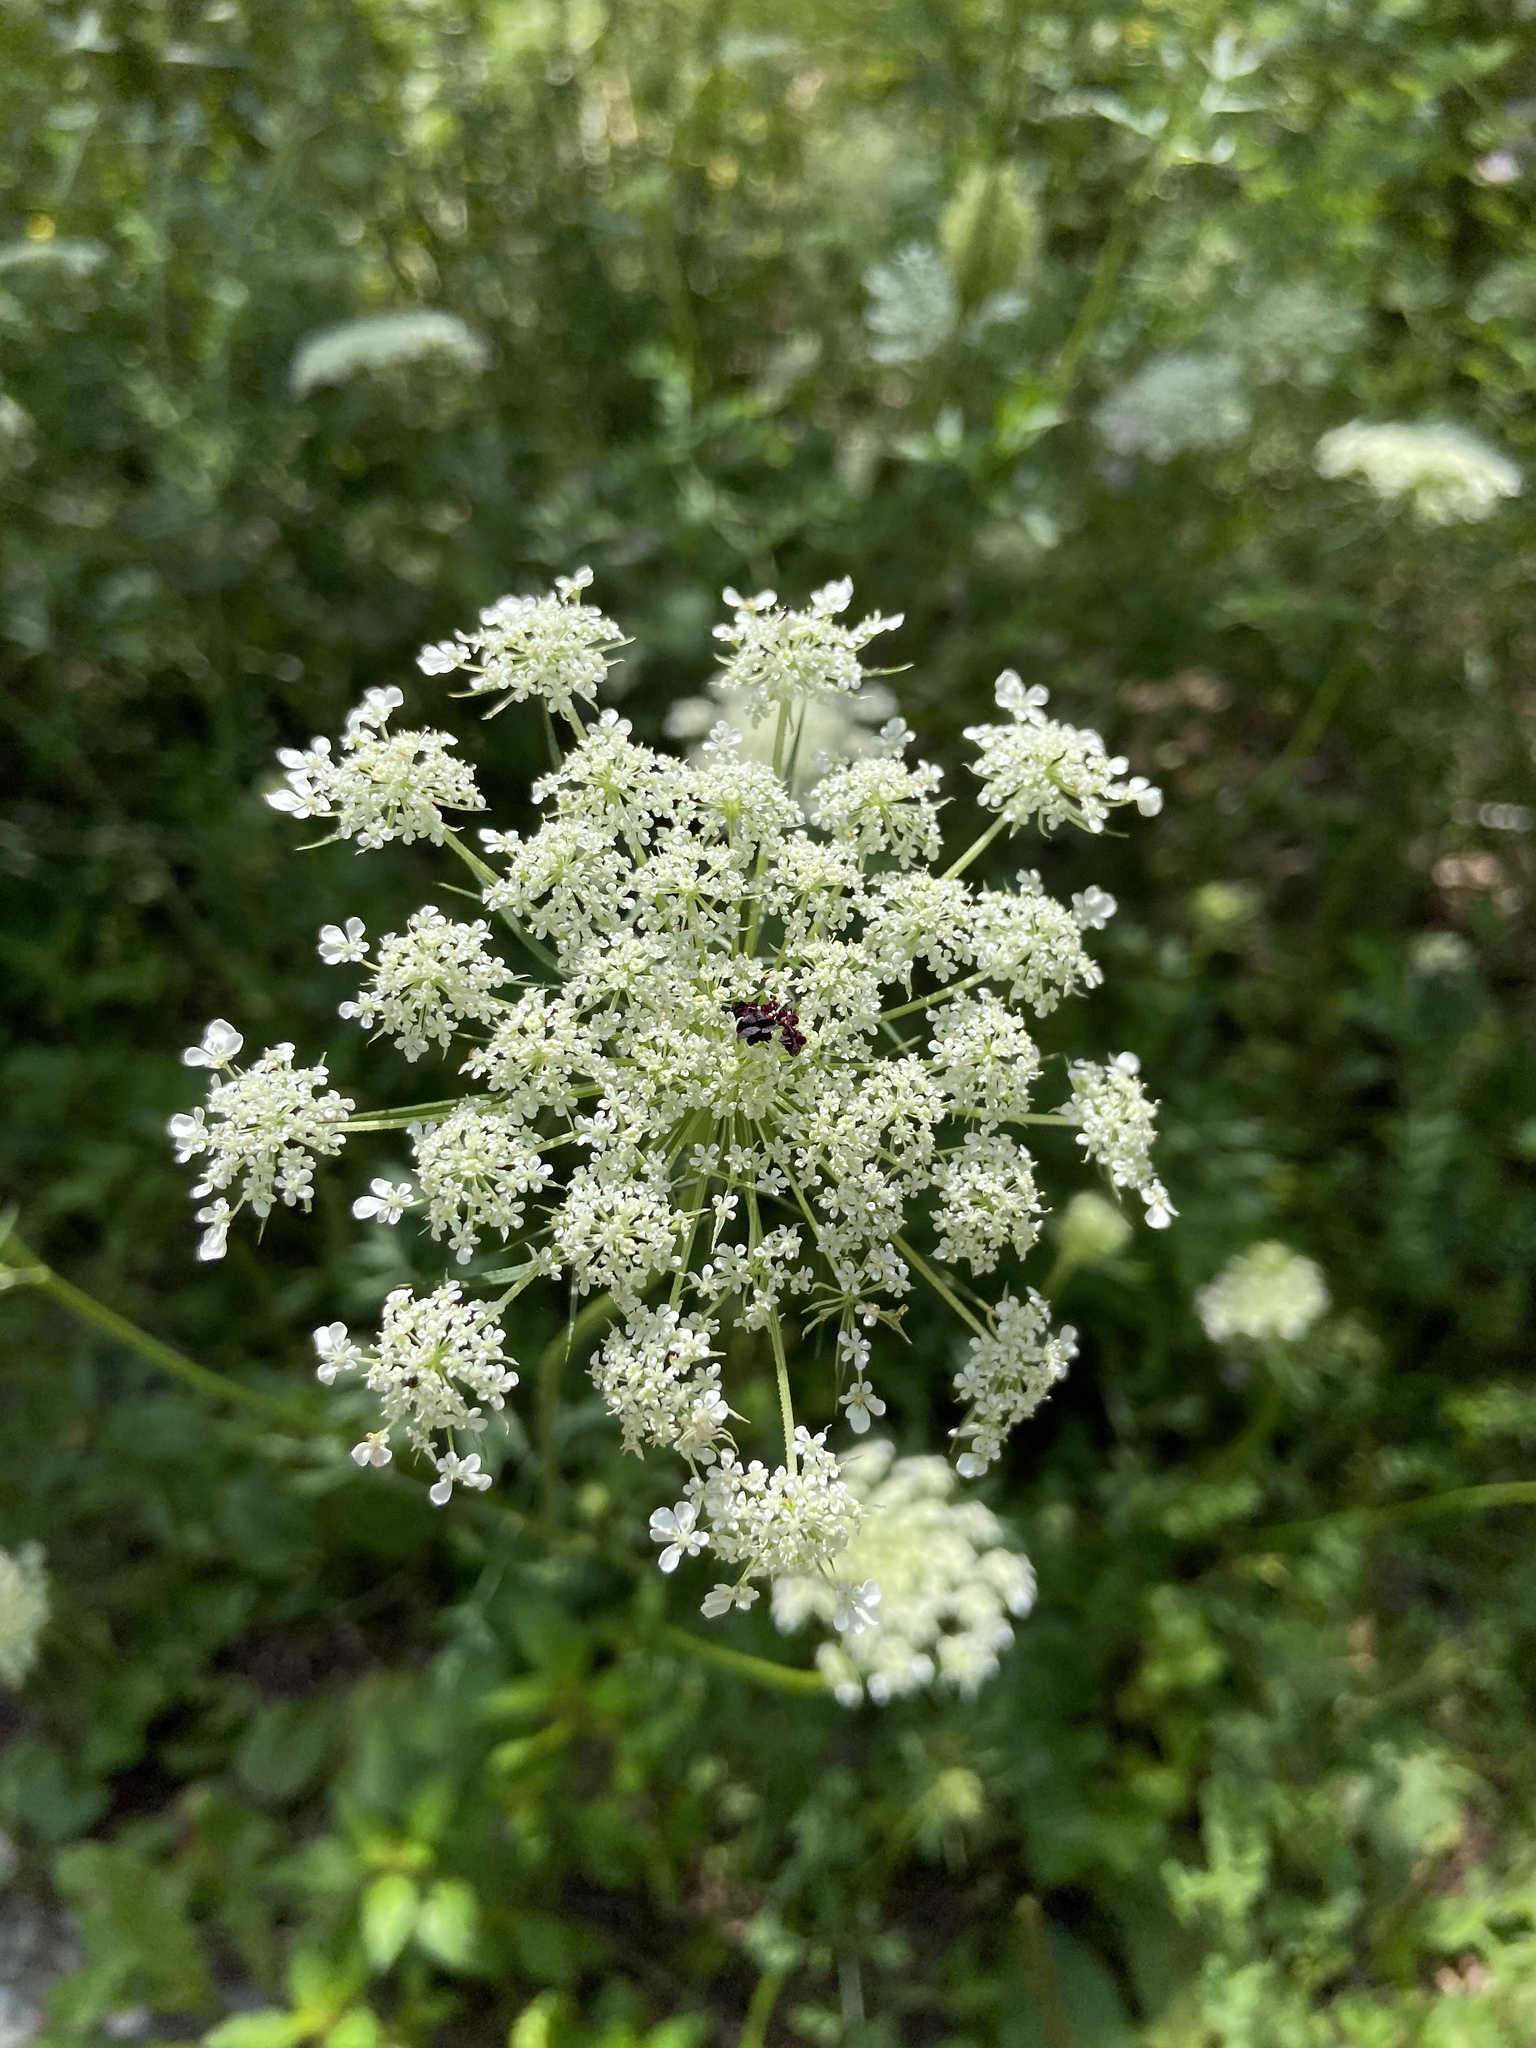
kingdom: Plantae
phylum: Tracheophyta
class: Magnoliopsida
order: Apiales
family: Apiaceae
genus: Daucus
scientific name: Daucus carota
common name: Wild carrot
